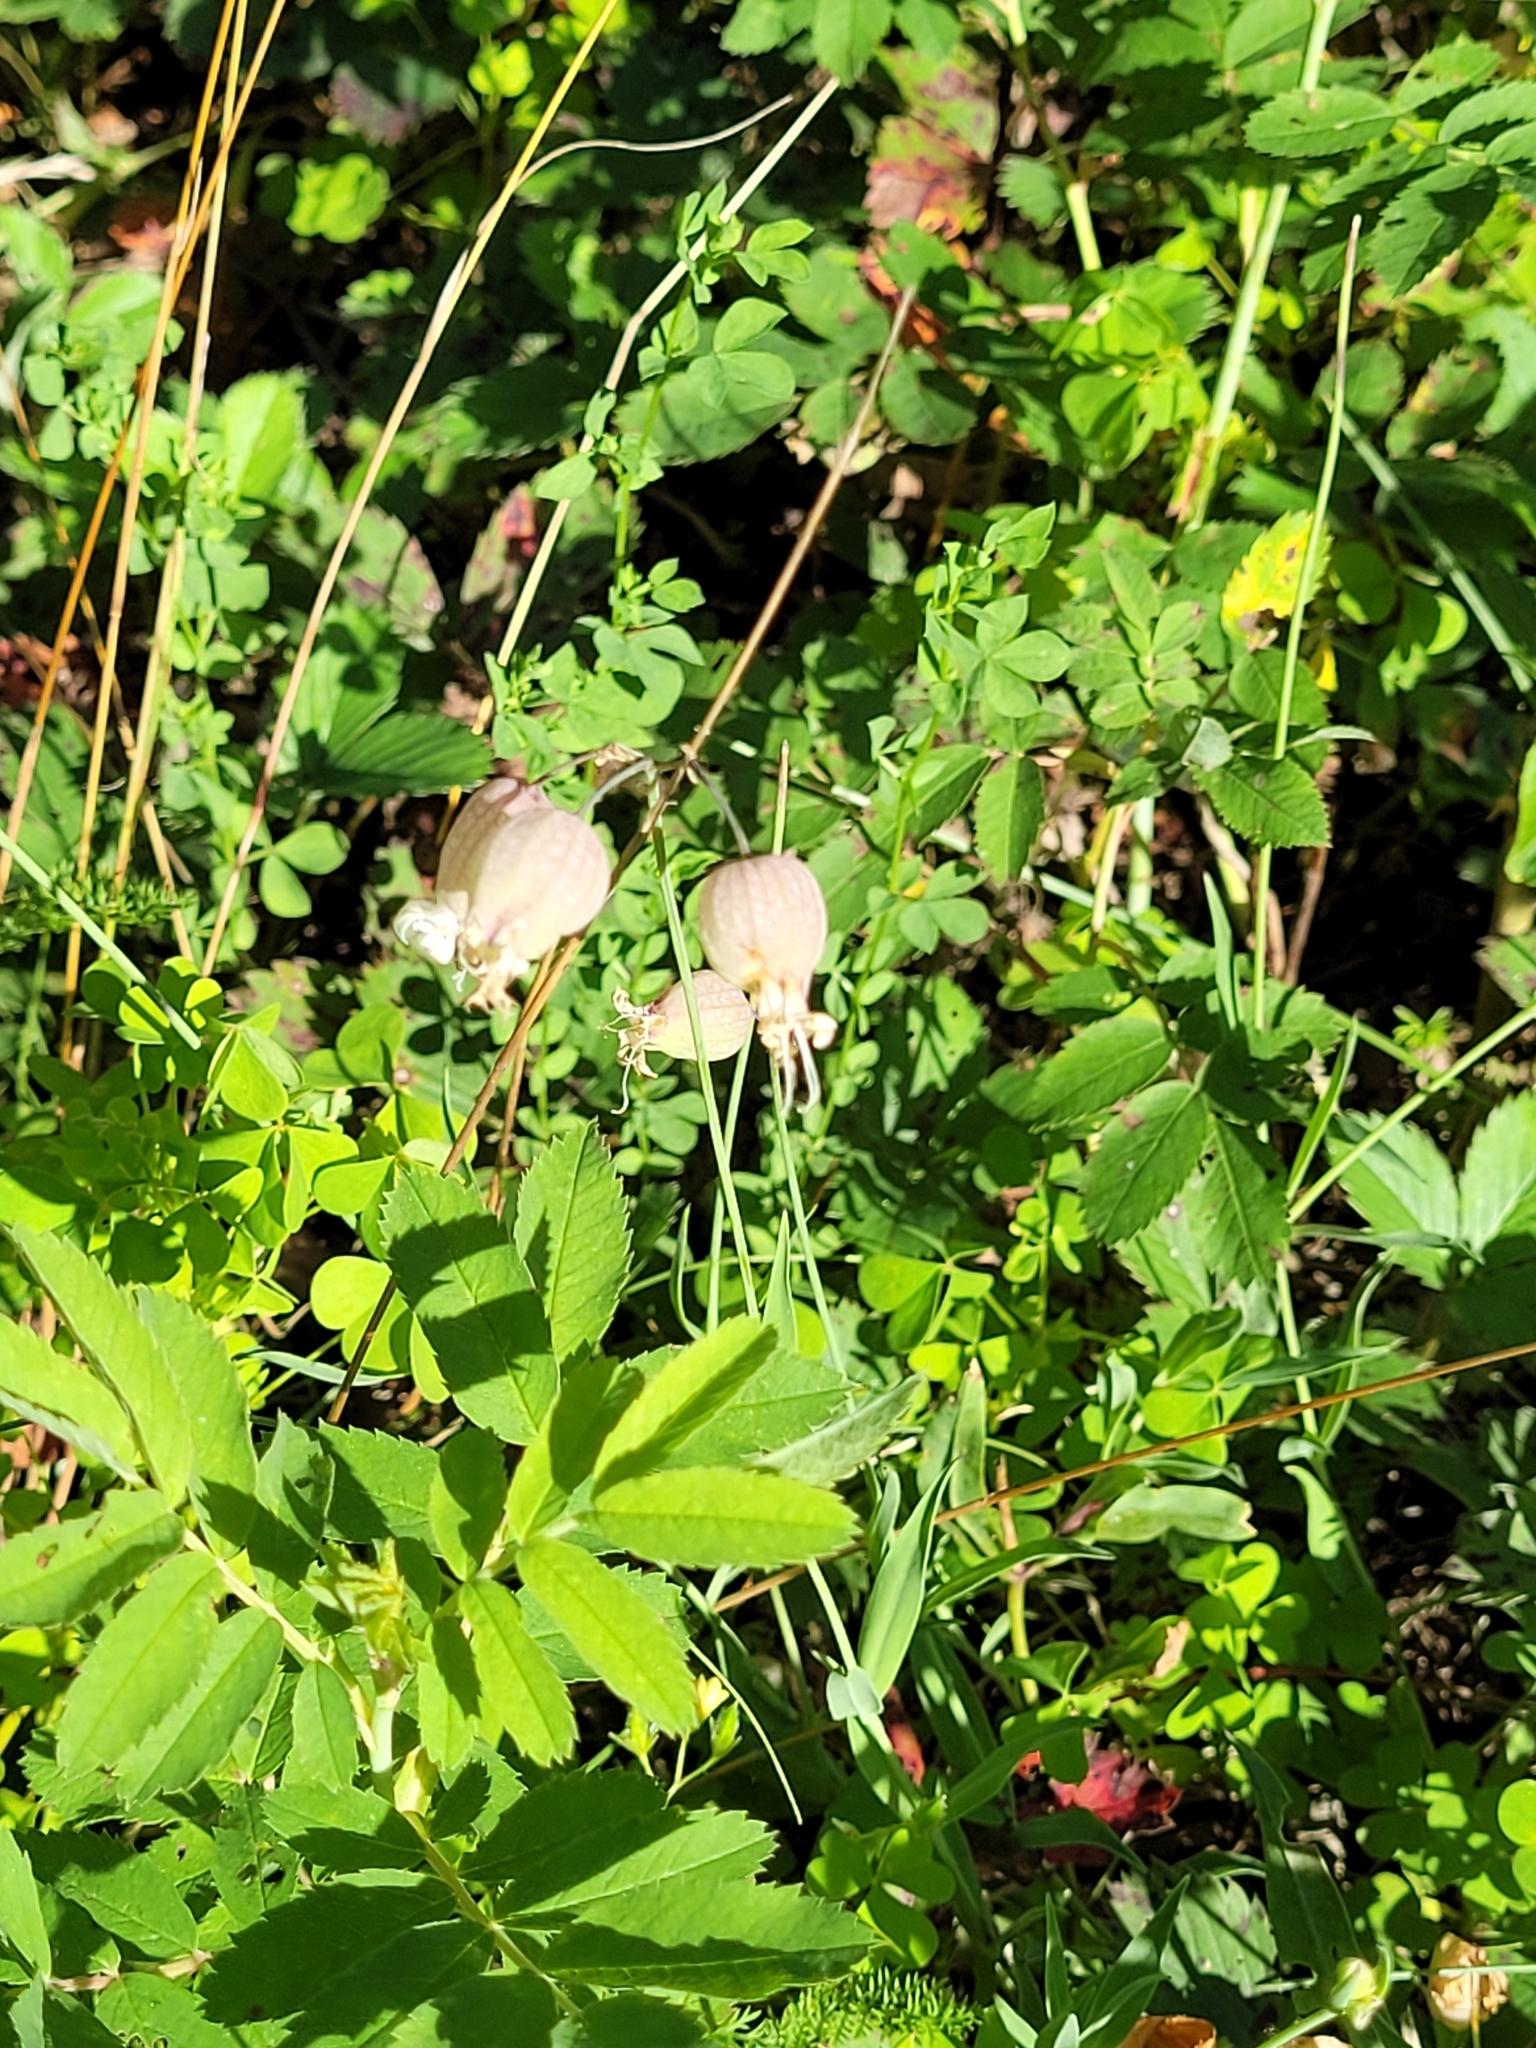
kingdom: Plantae
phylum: Tracheophyta
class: Magnoliopsida
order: Caryophyllales
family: Caryophyllaceae
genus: Silene
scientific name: Silene vulgaris
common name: Bladder campion
